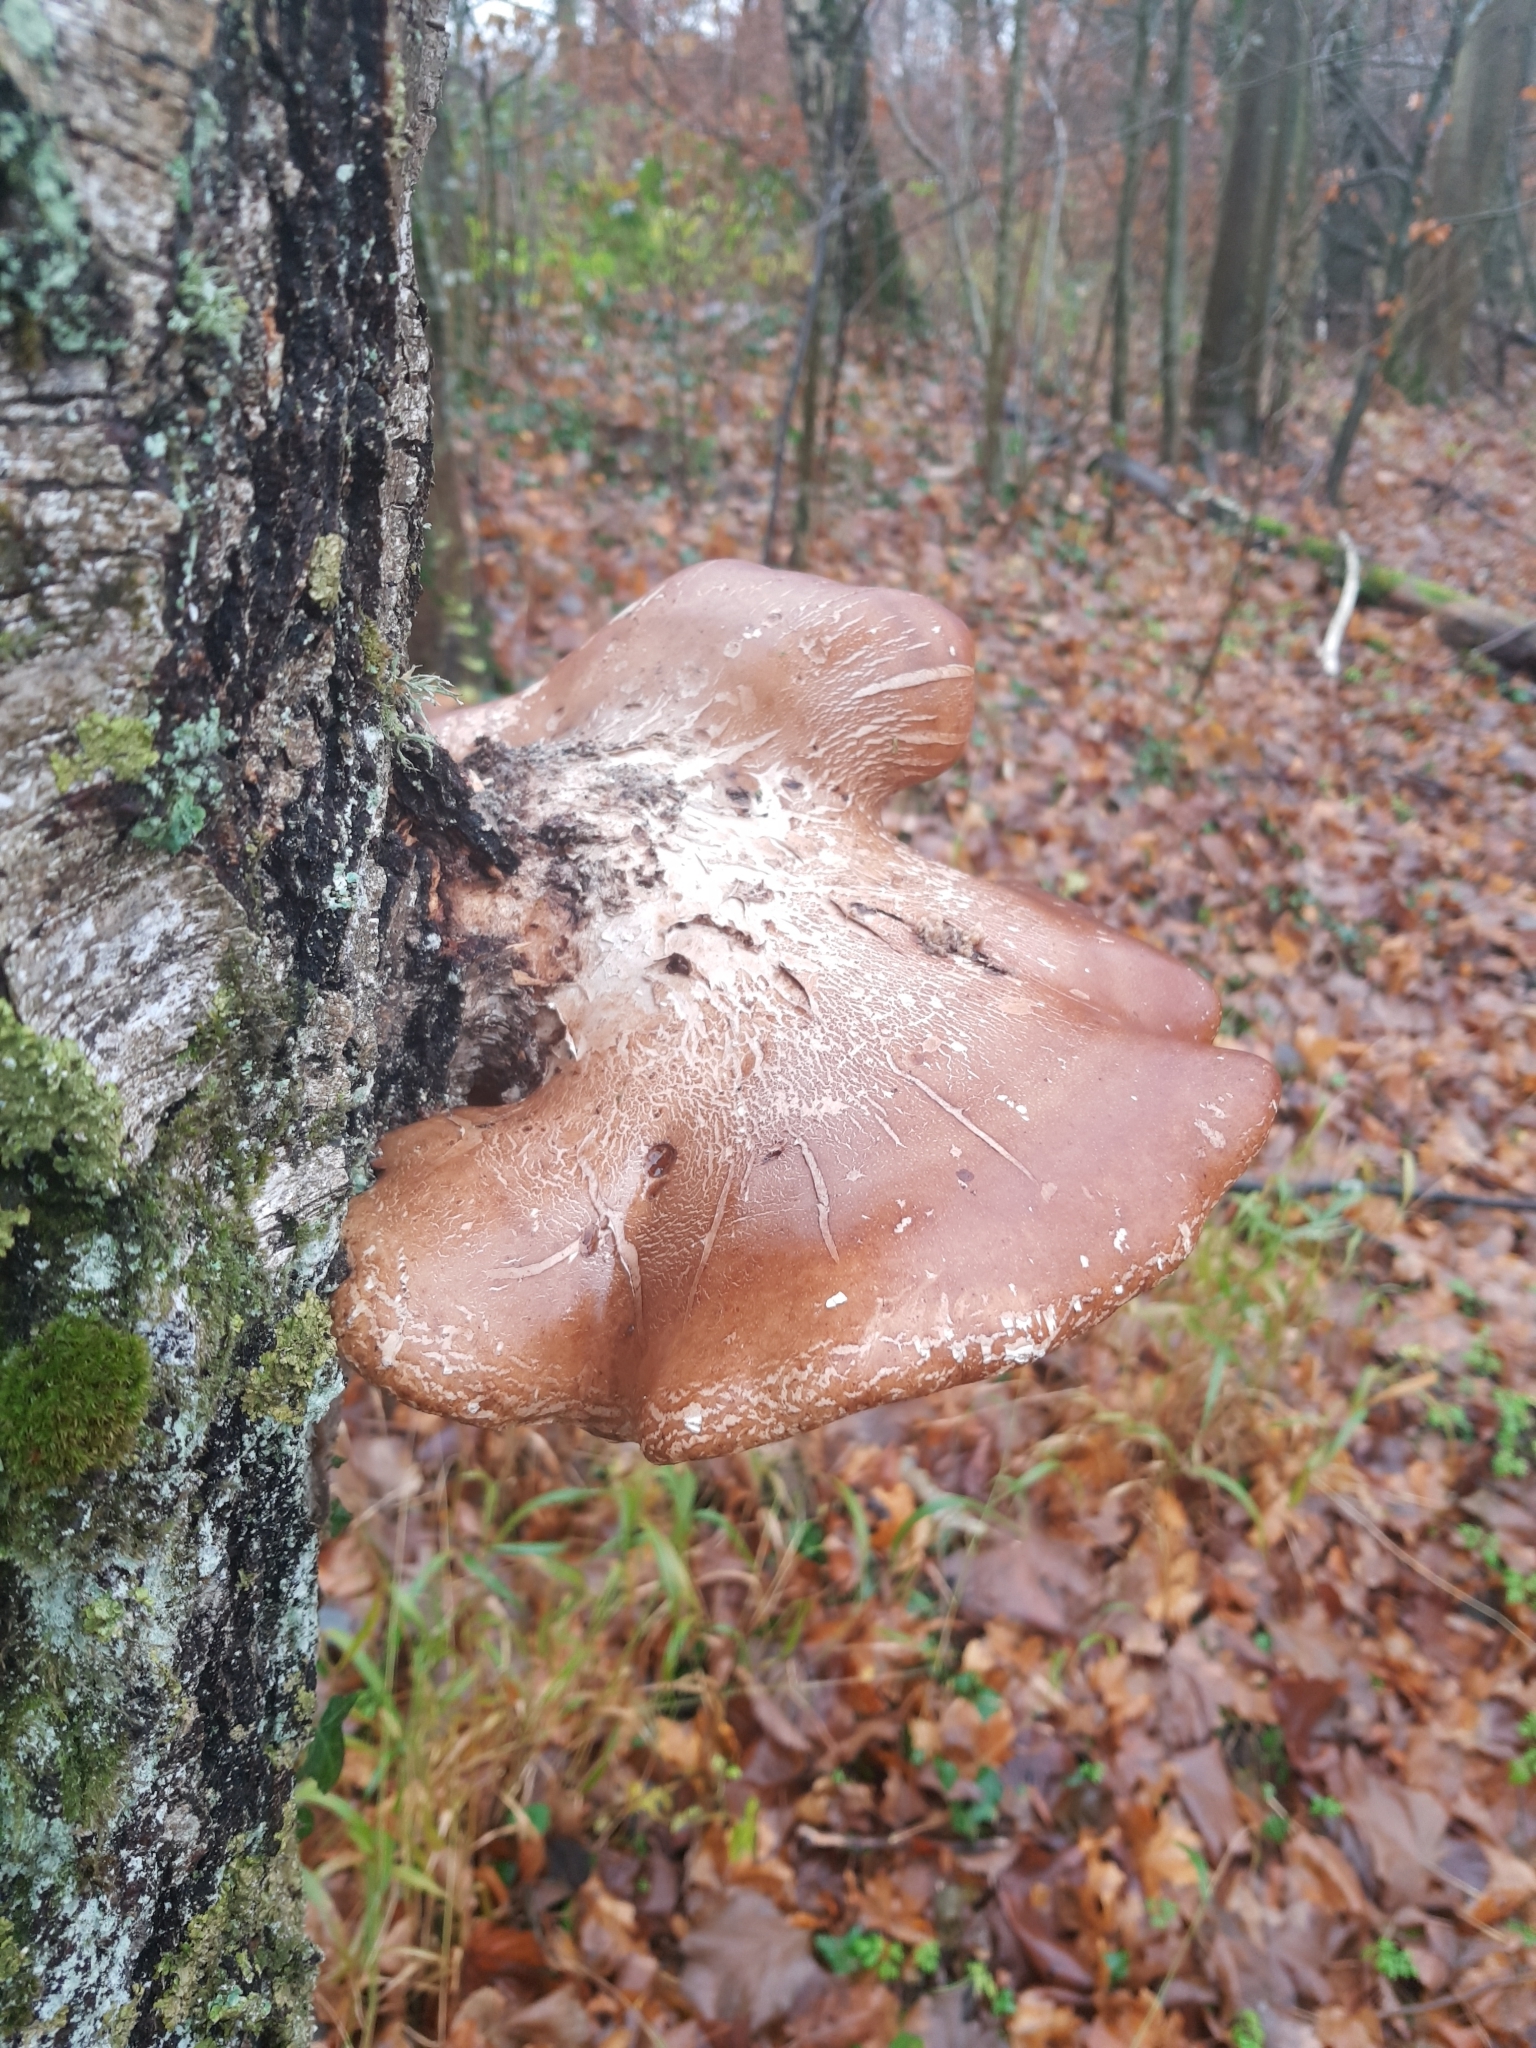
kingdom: Fungi
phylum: Basidiomycota
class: Agaricomycetes
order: Polyporales
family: Fomitopsidaceae
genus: Fomitopsis
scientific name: Fomitopsis betulina
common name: Birch polypore
